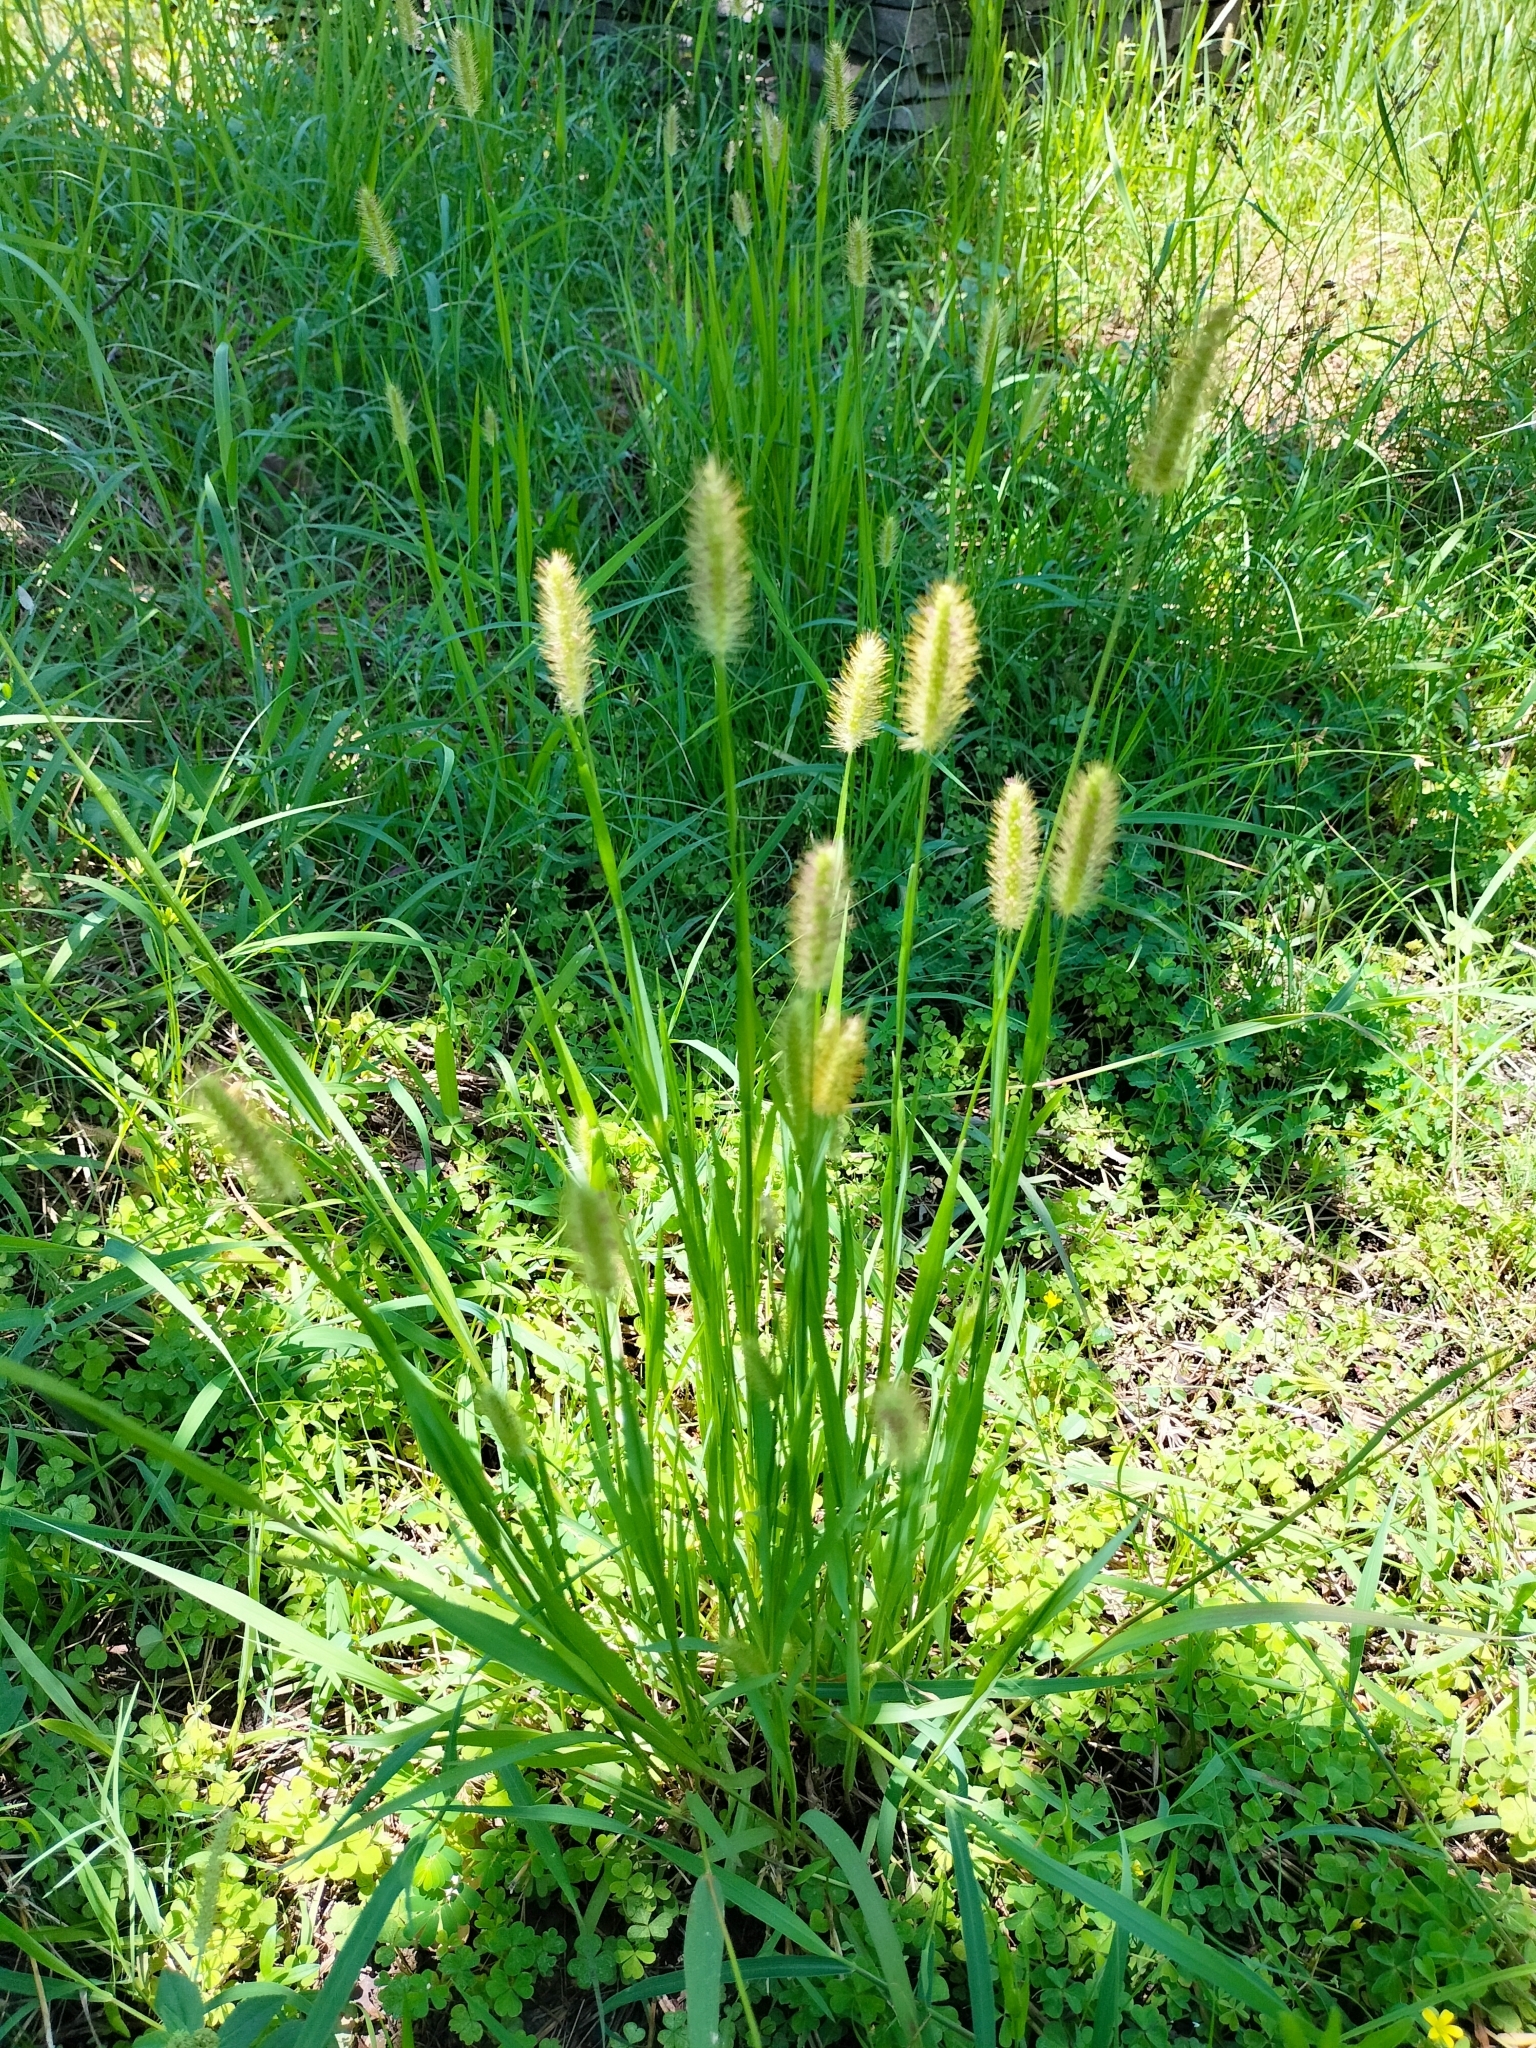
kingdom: Plantae
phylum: Tracheophyta
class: Liliopsida
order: Poales
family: Poaceae
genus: Setaria
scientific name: Setaria parviflora
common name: Knotroot bristle-grass
